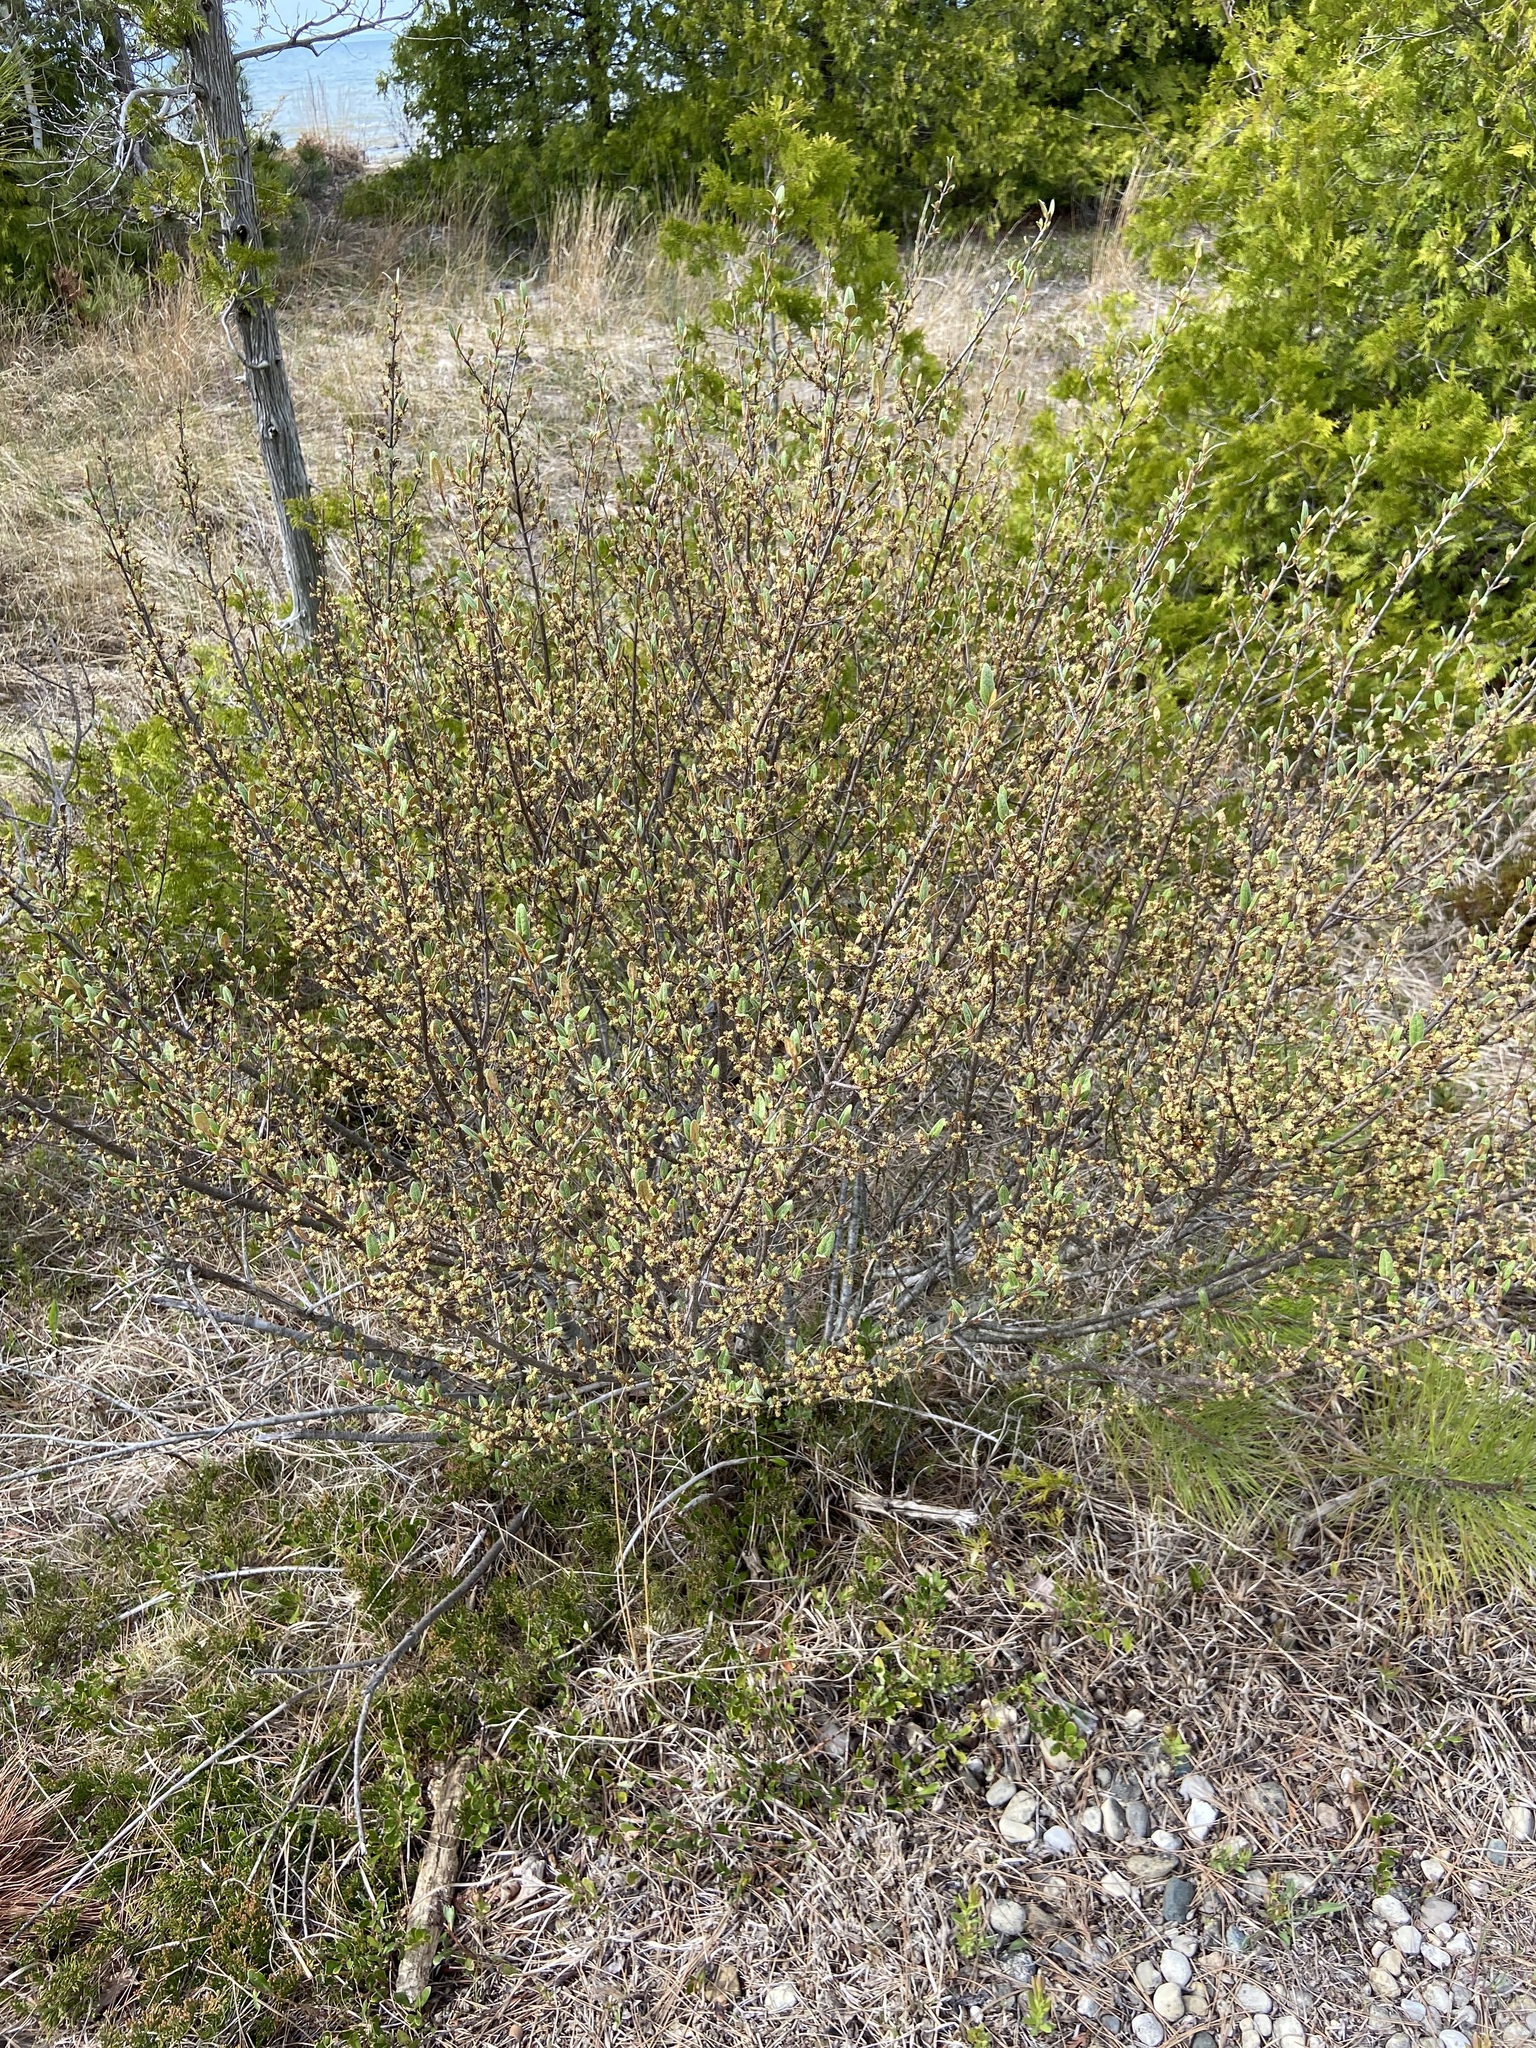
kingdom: Plantae
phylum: Tracheophyta
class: Magnoliopsida
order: Rosales
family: Elaeagnaceae
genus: Shepherdia
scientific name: Shepherdia canadensis
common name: Soapberry
